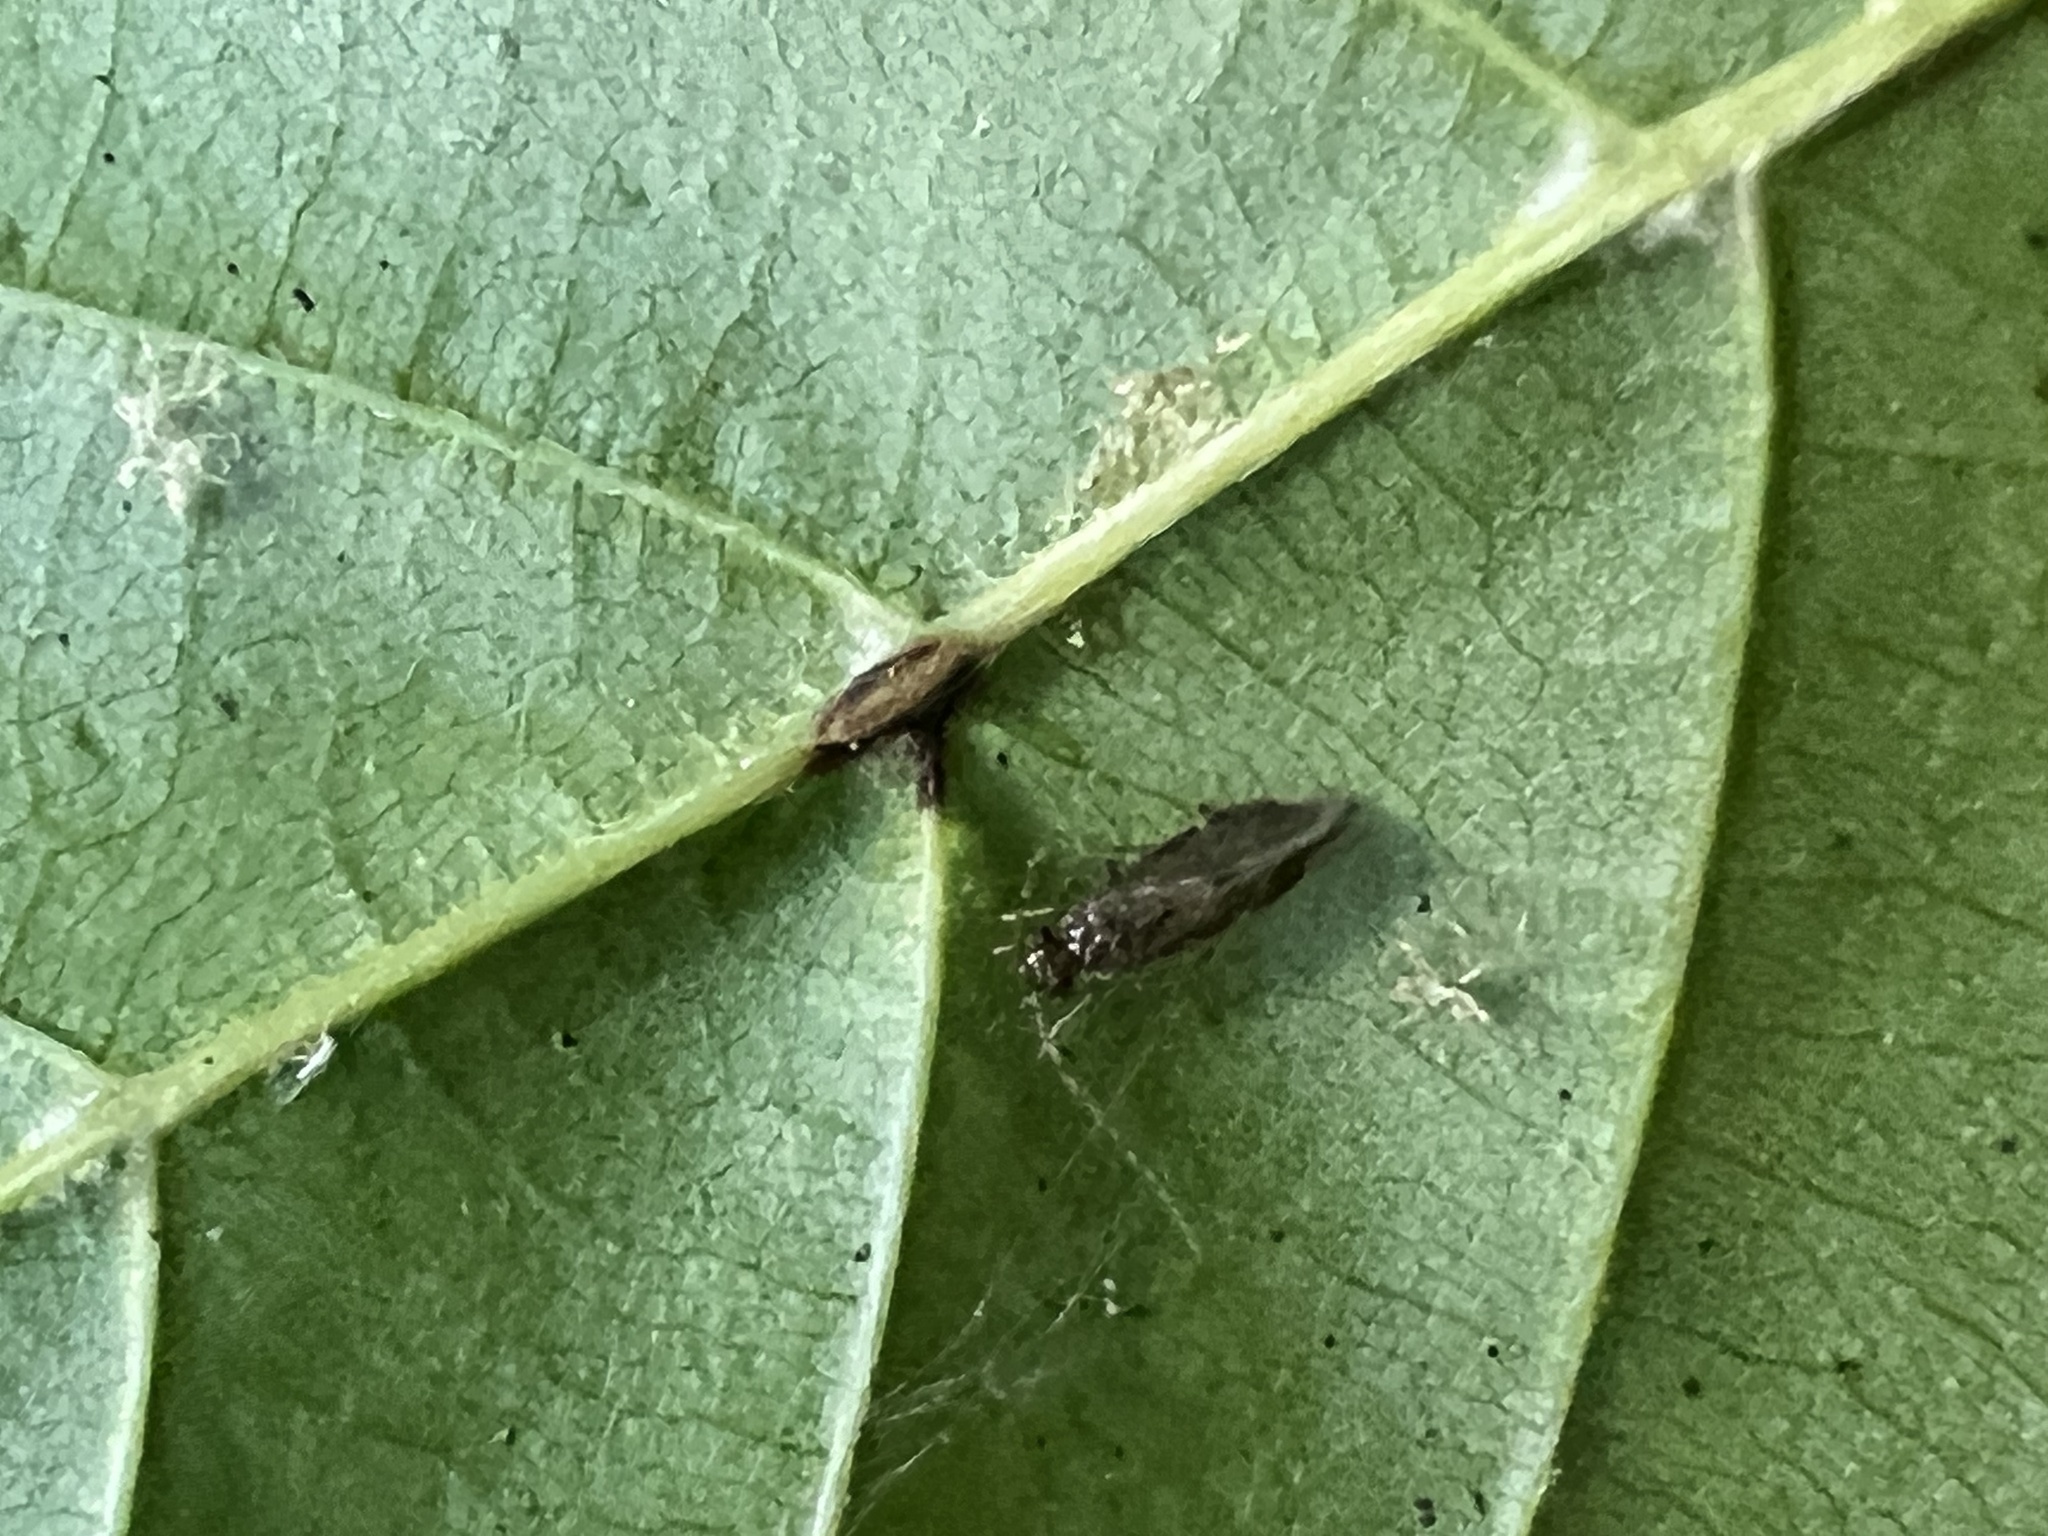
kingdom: Animalia
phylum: Arthropoda
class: Insecta
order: Psocodea
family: Amphipsocidae
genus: Polypsocus
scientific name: Polypsocus corruptus
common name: Corrupt barklouse
